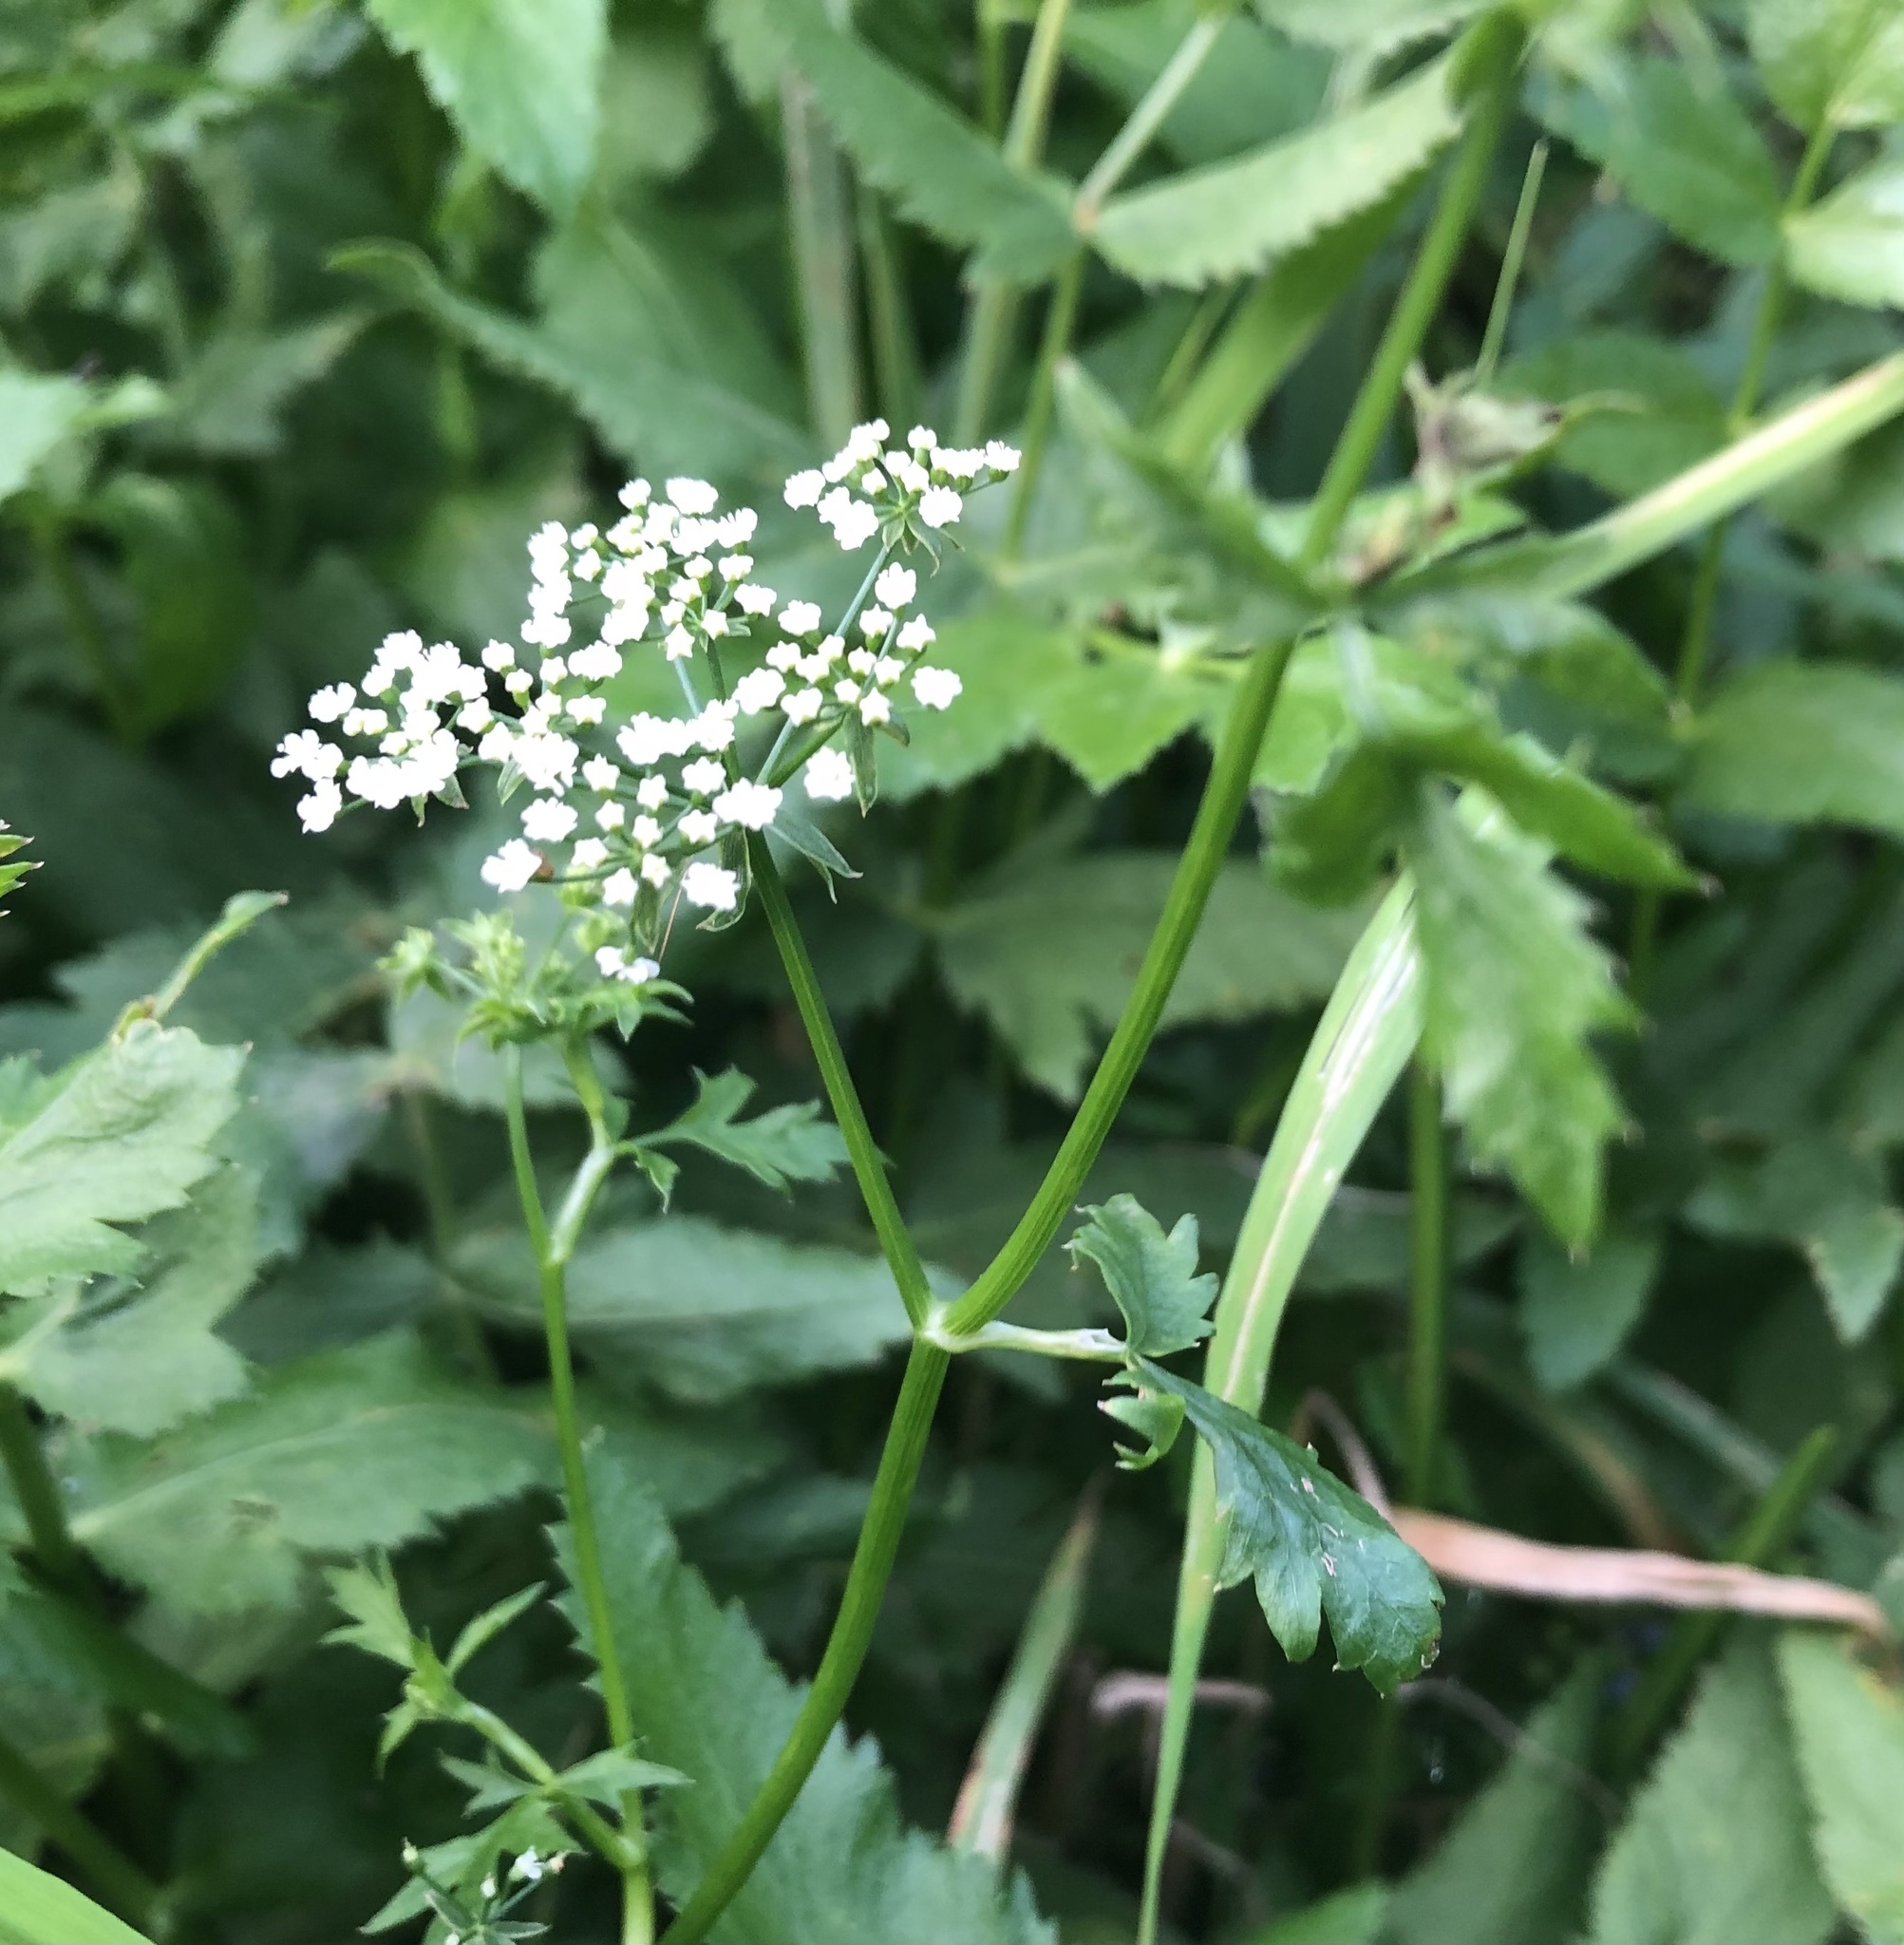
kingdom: Plantae
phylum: Tracheophyta
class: Magnoliopsida
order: Apiales
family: Apiaceae
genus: Berula
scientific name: Berula erecta
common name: Lesser water-parsnip
